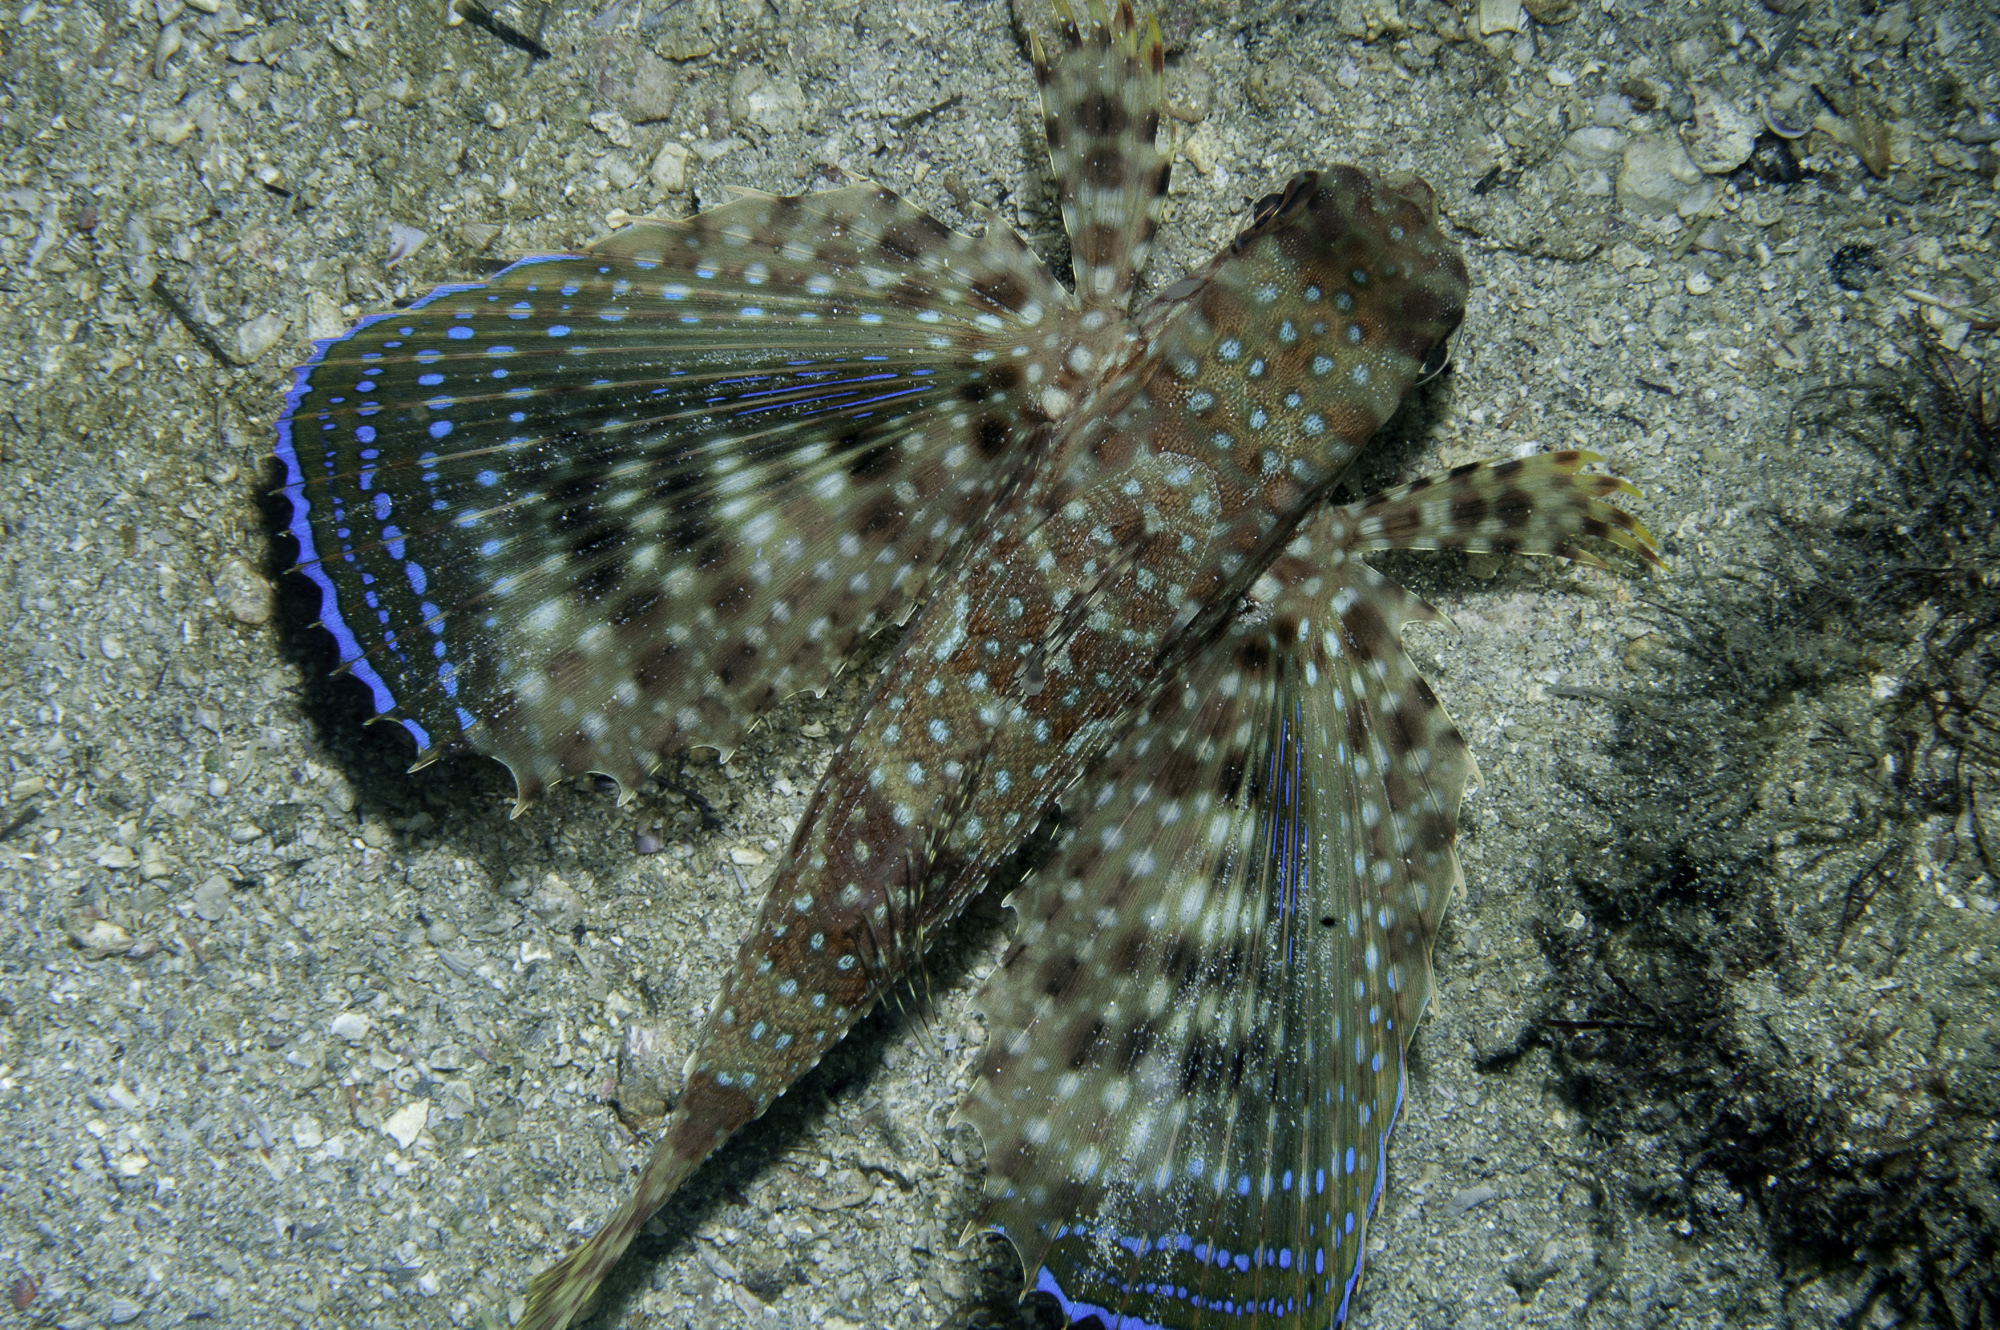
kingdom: Animalia
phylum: Chordata
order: Scorpaeniformes
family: Dactylopteridae
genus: Dactylopterus
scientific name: Dactylopterus volitans
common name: Flying gurnard
